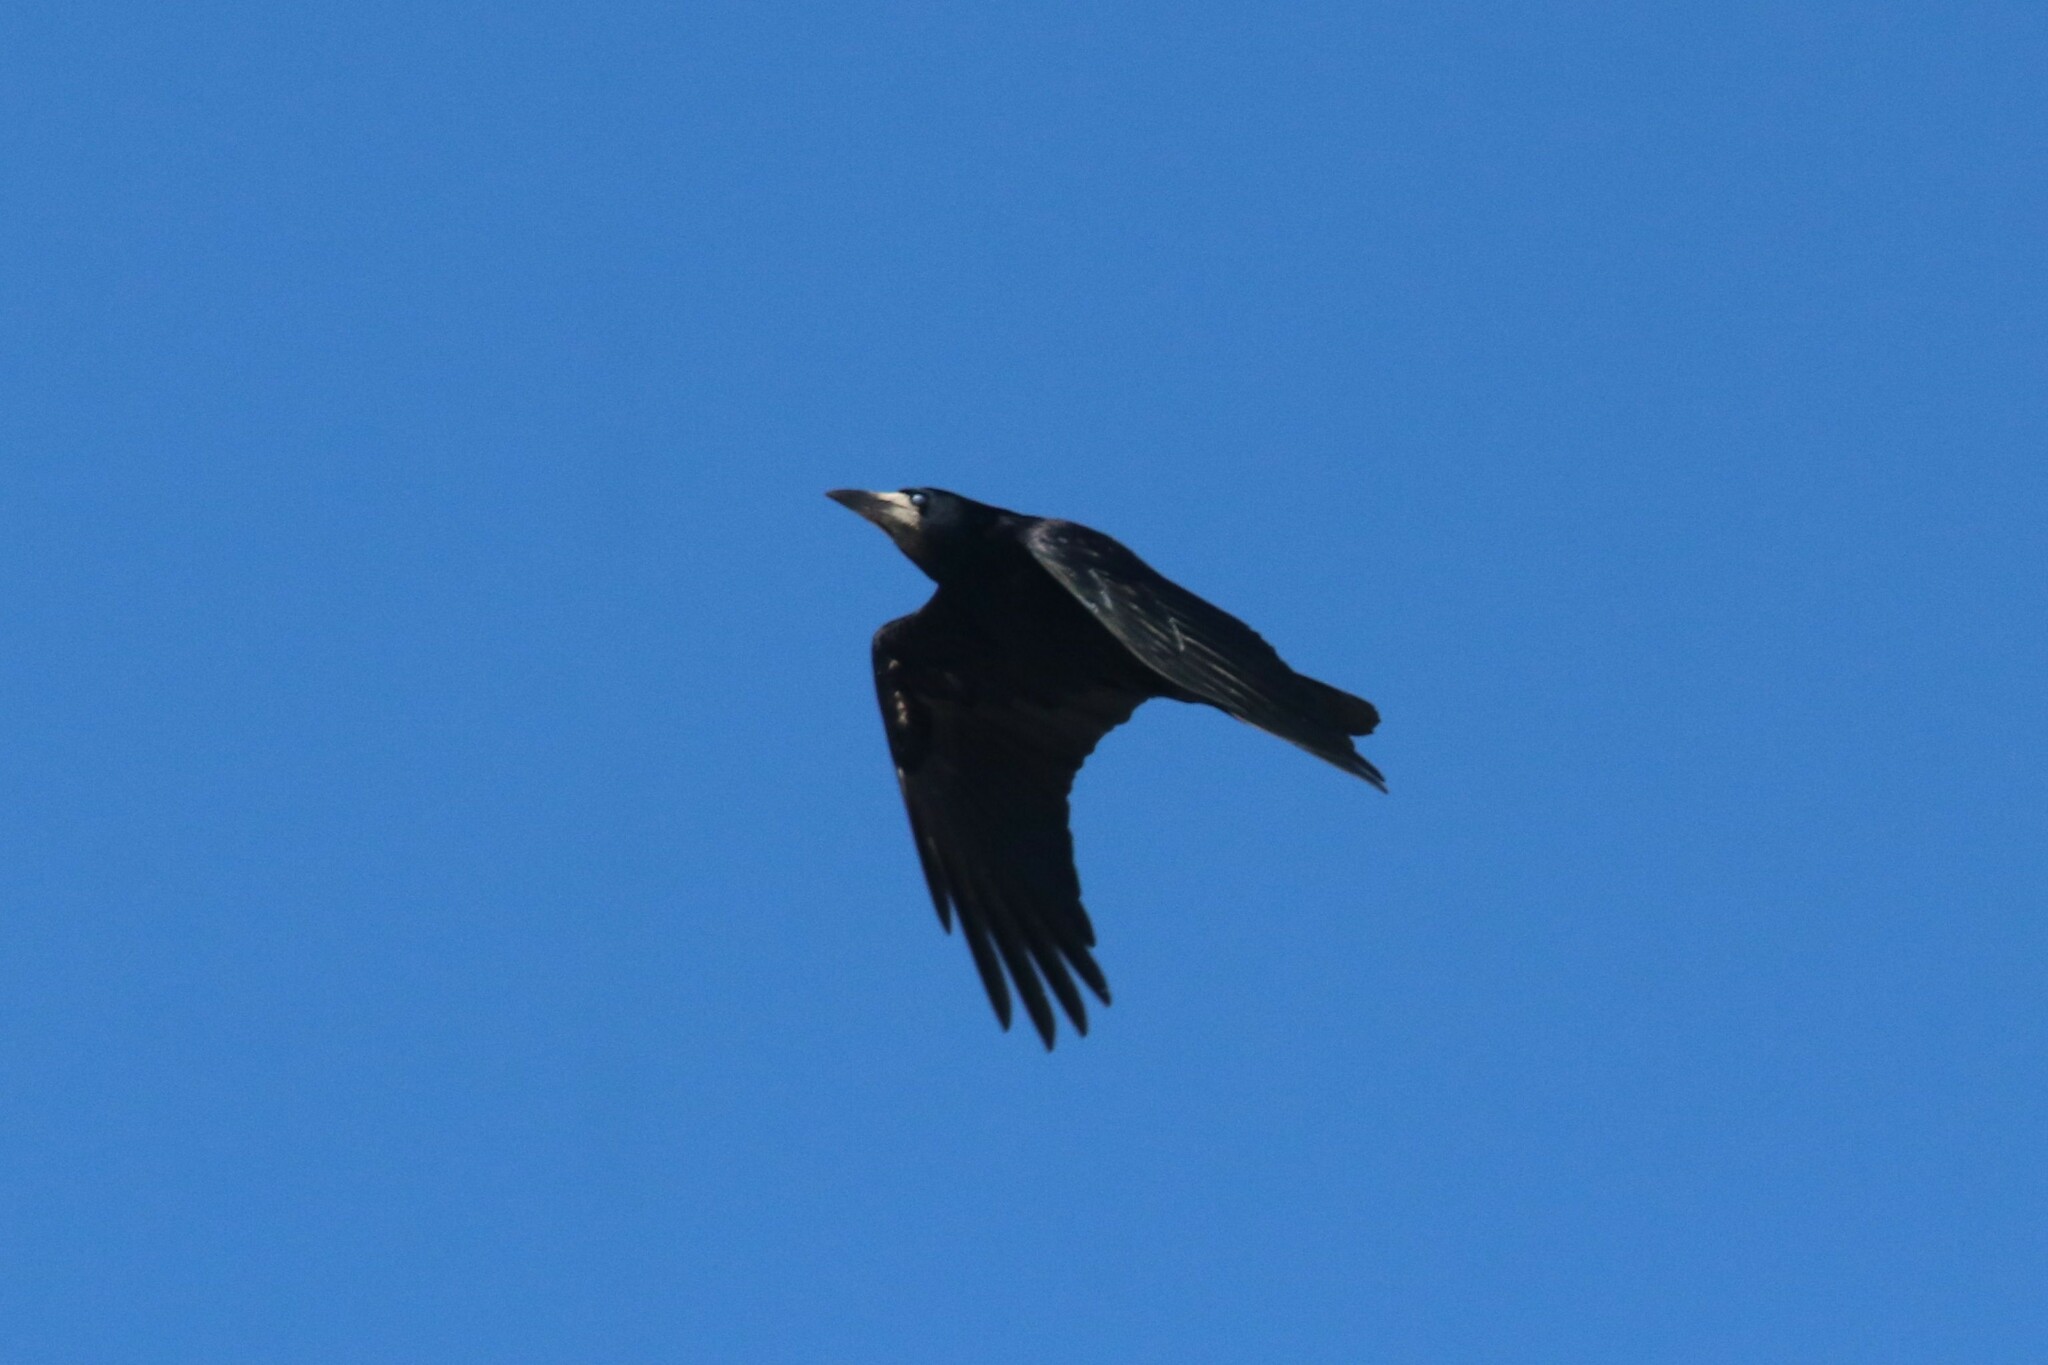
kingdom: Animalia
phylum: Chordata
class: Aves
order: Passeriformes
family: Corvidae
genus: Corvus
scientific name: Corvus frugilegus
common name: Rook
